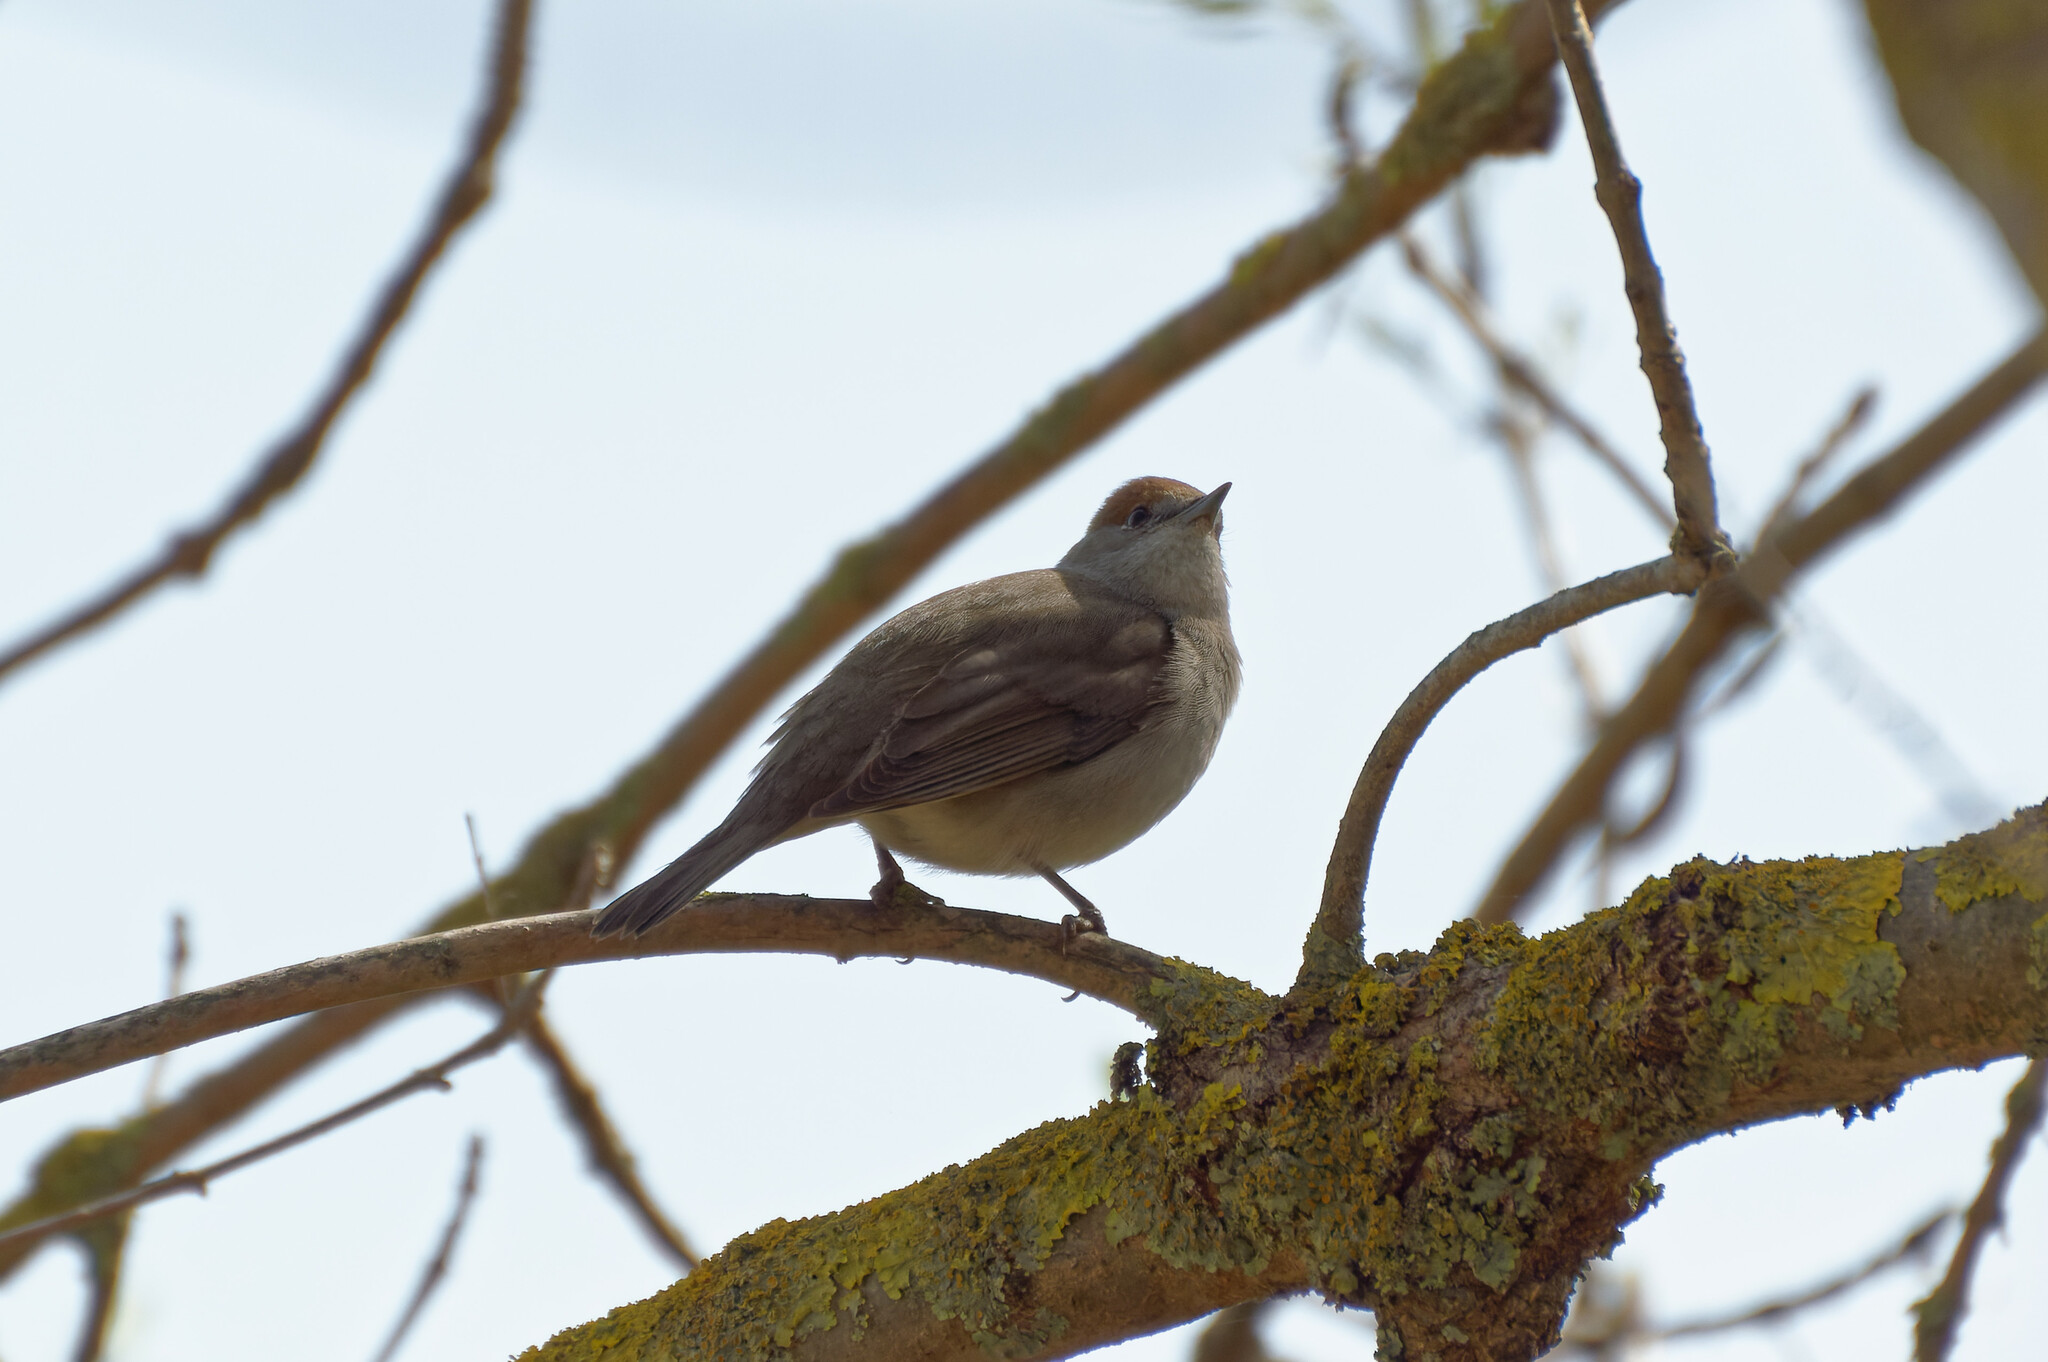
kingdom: Animalia
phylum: Chordata
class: Aves
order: Passeriformes
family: Sylviidae
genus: Sylvia
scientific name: Sylvia atricapilla
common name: Eurasian blackcap
